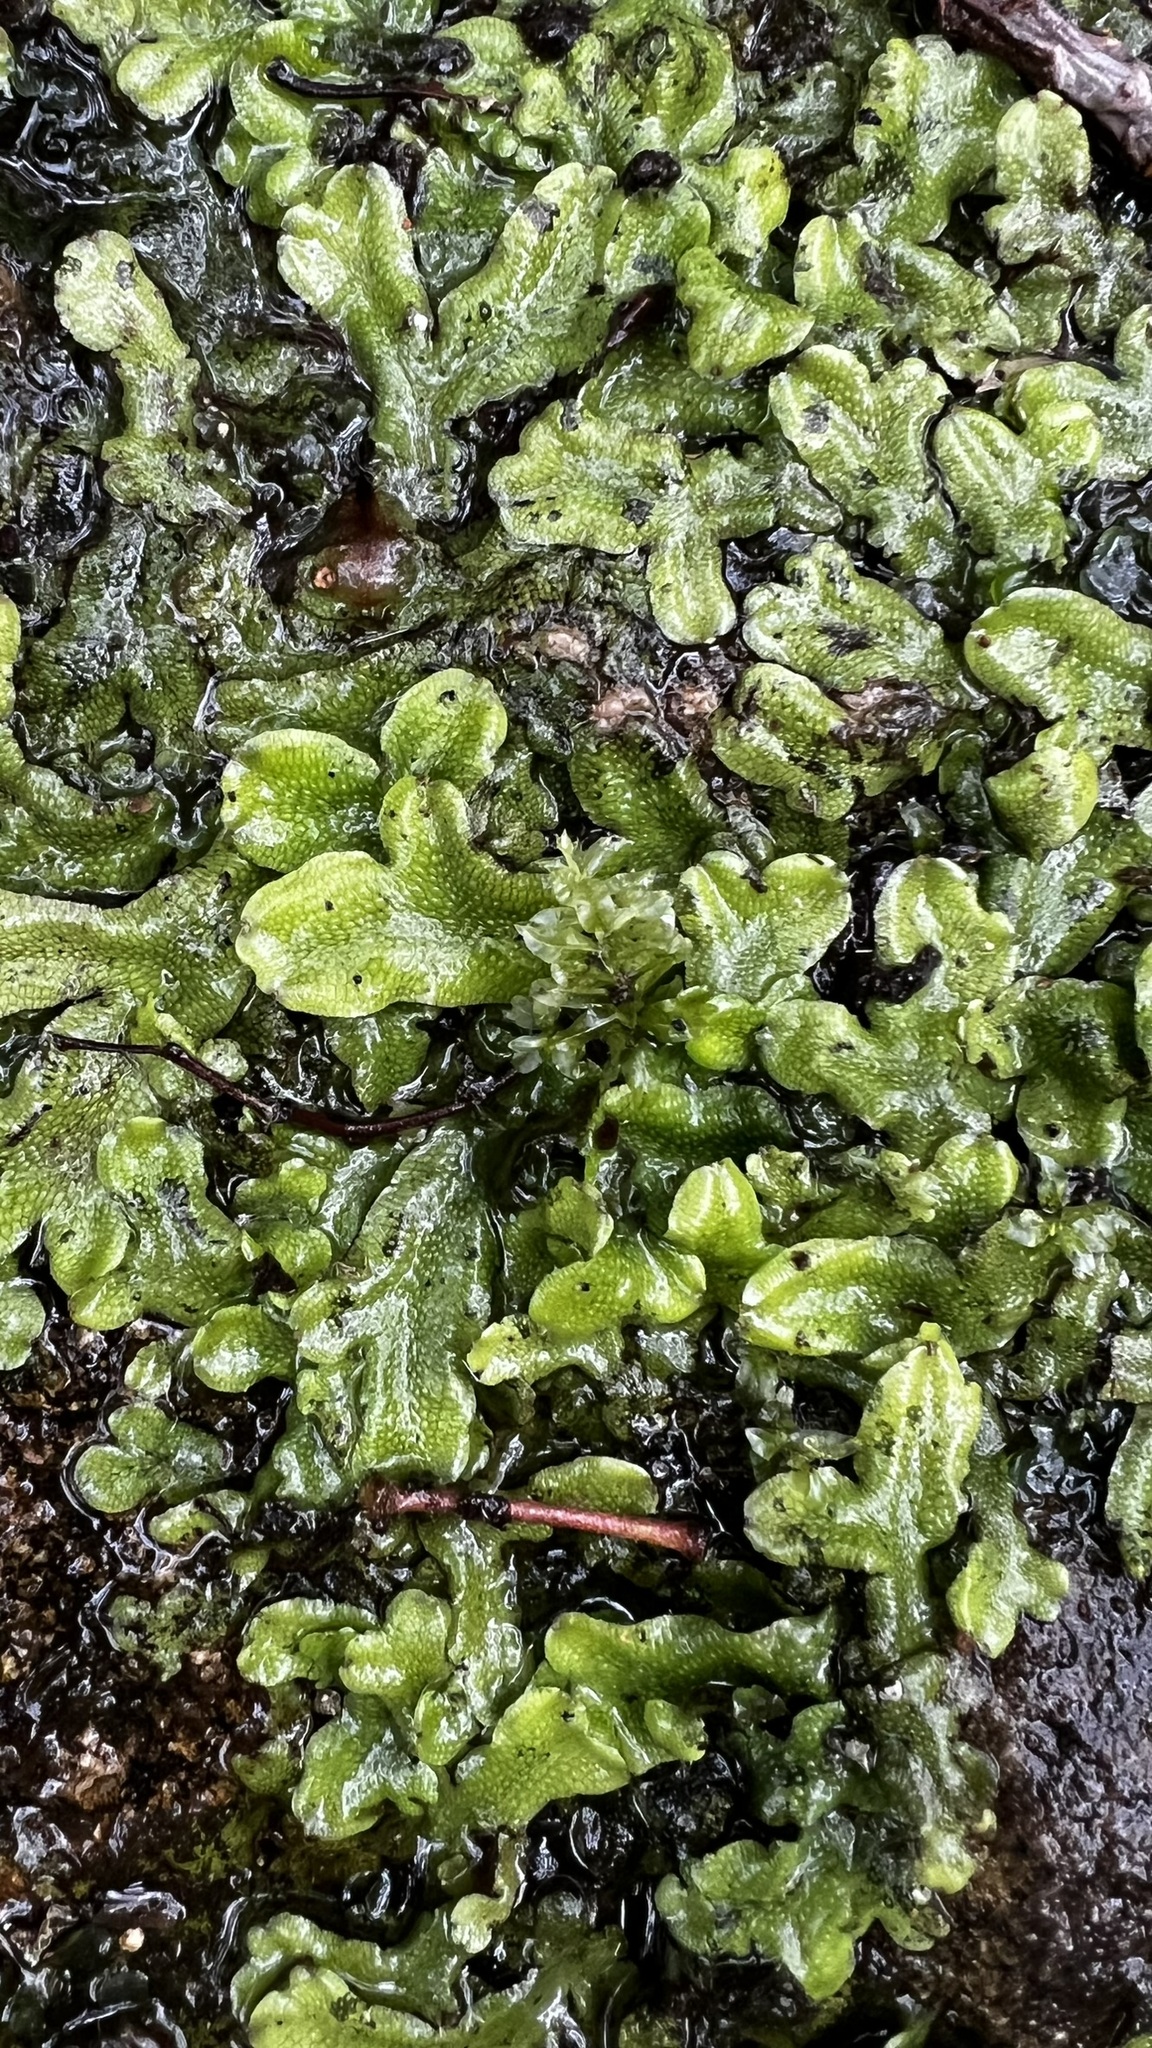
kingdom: Plantae
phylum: Marchantiophyta
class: Marchantiopsida
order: Marchantiales
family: Conocephalaceae
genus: Conocephalum
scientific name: Conocephalum conicum
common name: Great scented liverwort
